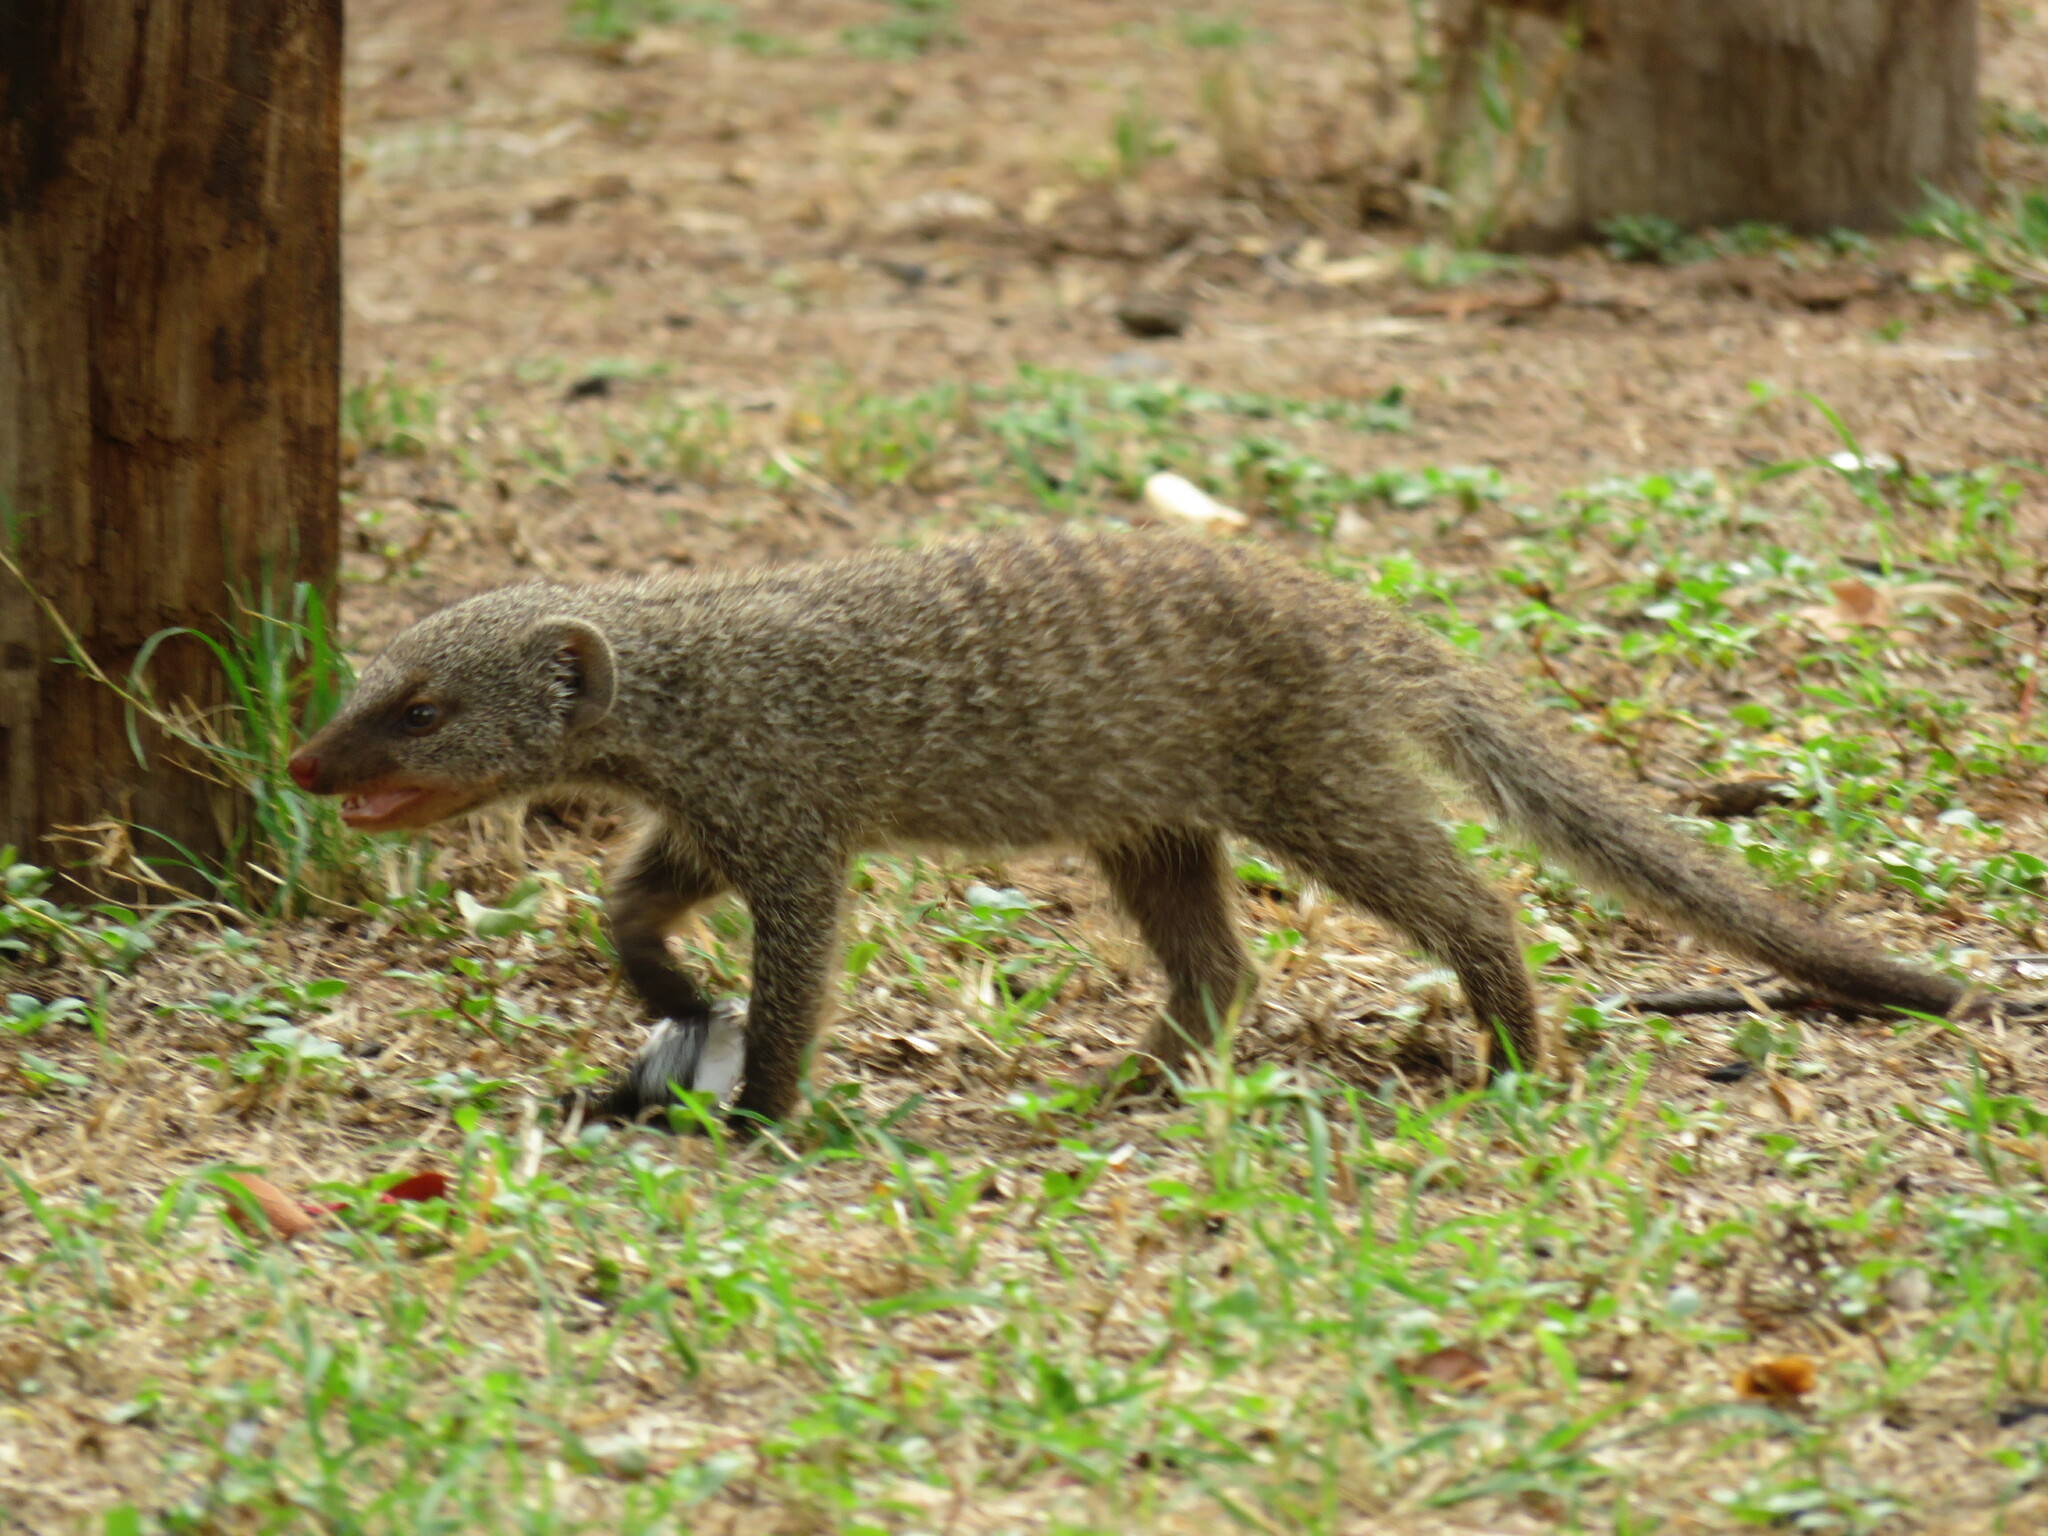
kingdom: Animalia
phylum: Chordata
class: Mammalia
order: Carnivora
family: Herpestidae
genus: Mungos
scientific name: Mungos mungo
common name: Banded mongoose
